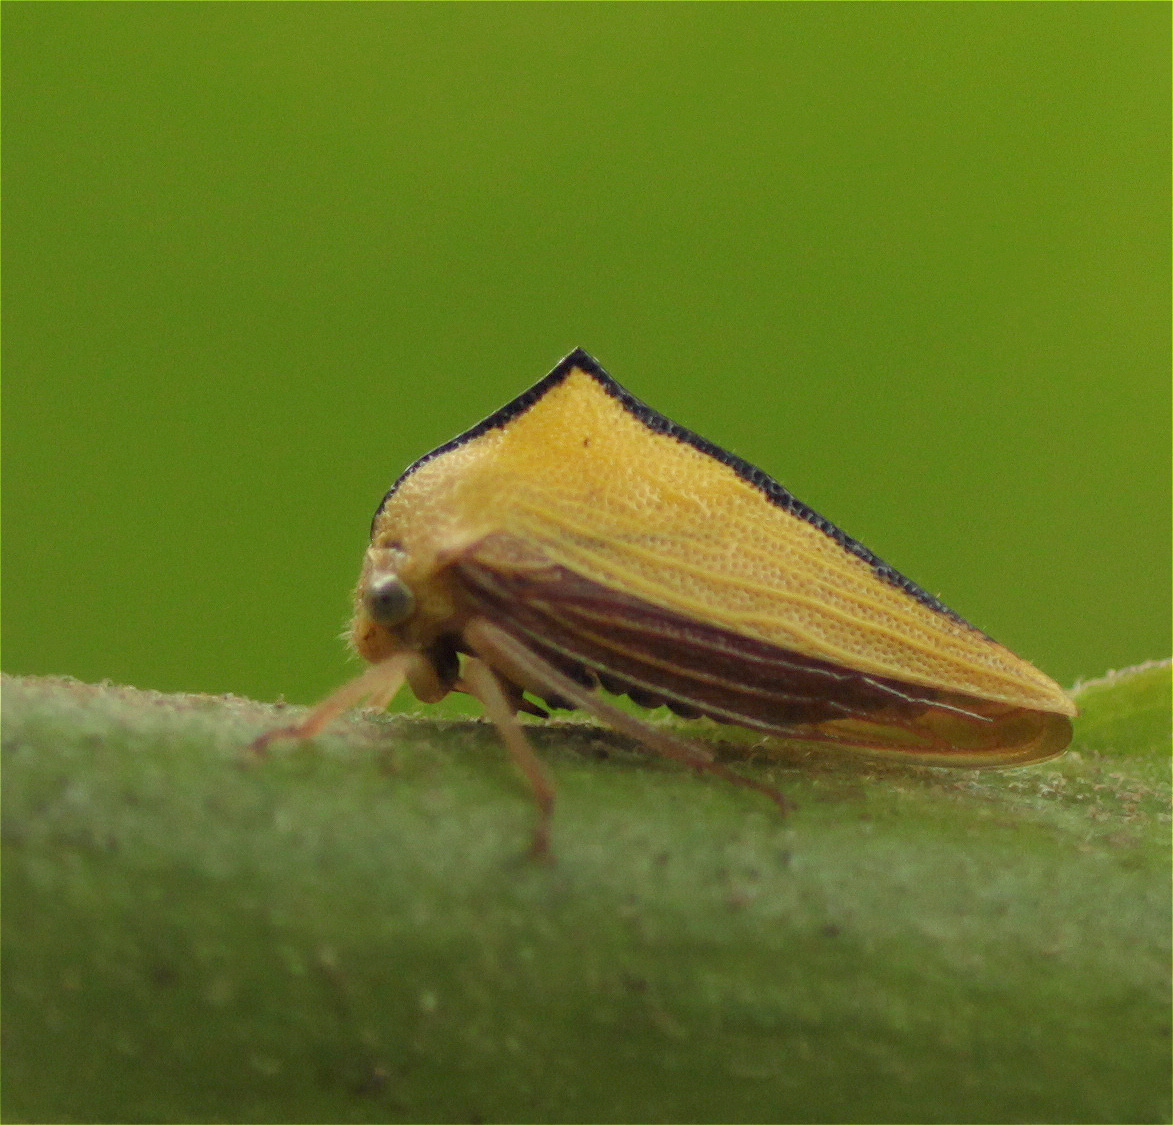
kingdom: Animalia
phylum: Arthropoda
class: Insecta
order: Hemiptera
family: Membracidae
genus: Ennya
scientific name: Ennya sobria
